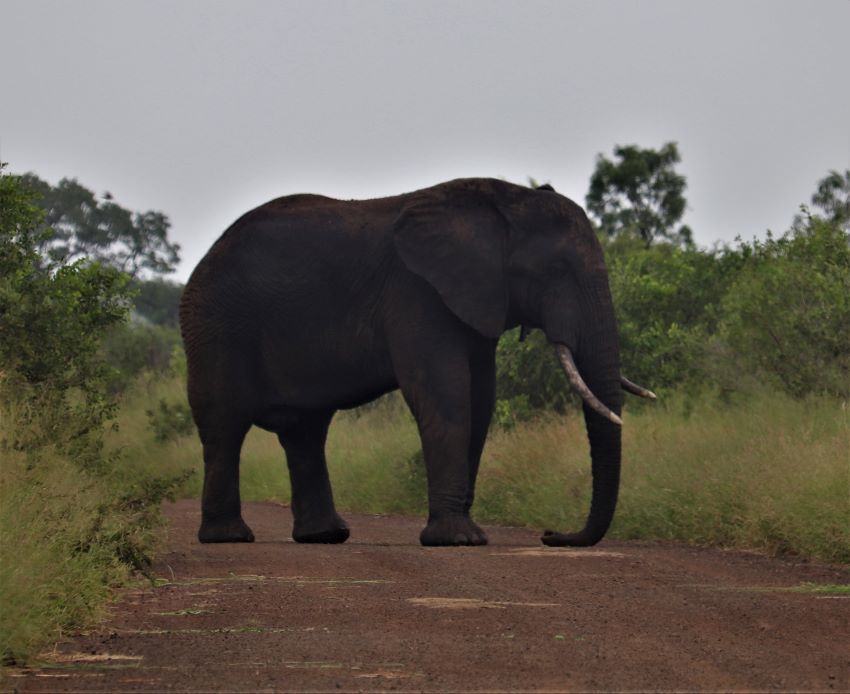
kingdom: Animalia
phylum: Chordata
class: Mammalia
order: Proboscidea
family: Elephantidae
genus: Loxodonta
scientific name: Loxodonta africana
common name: African elephant
